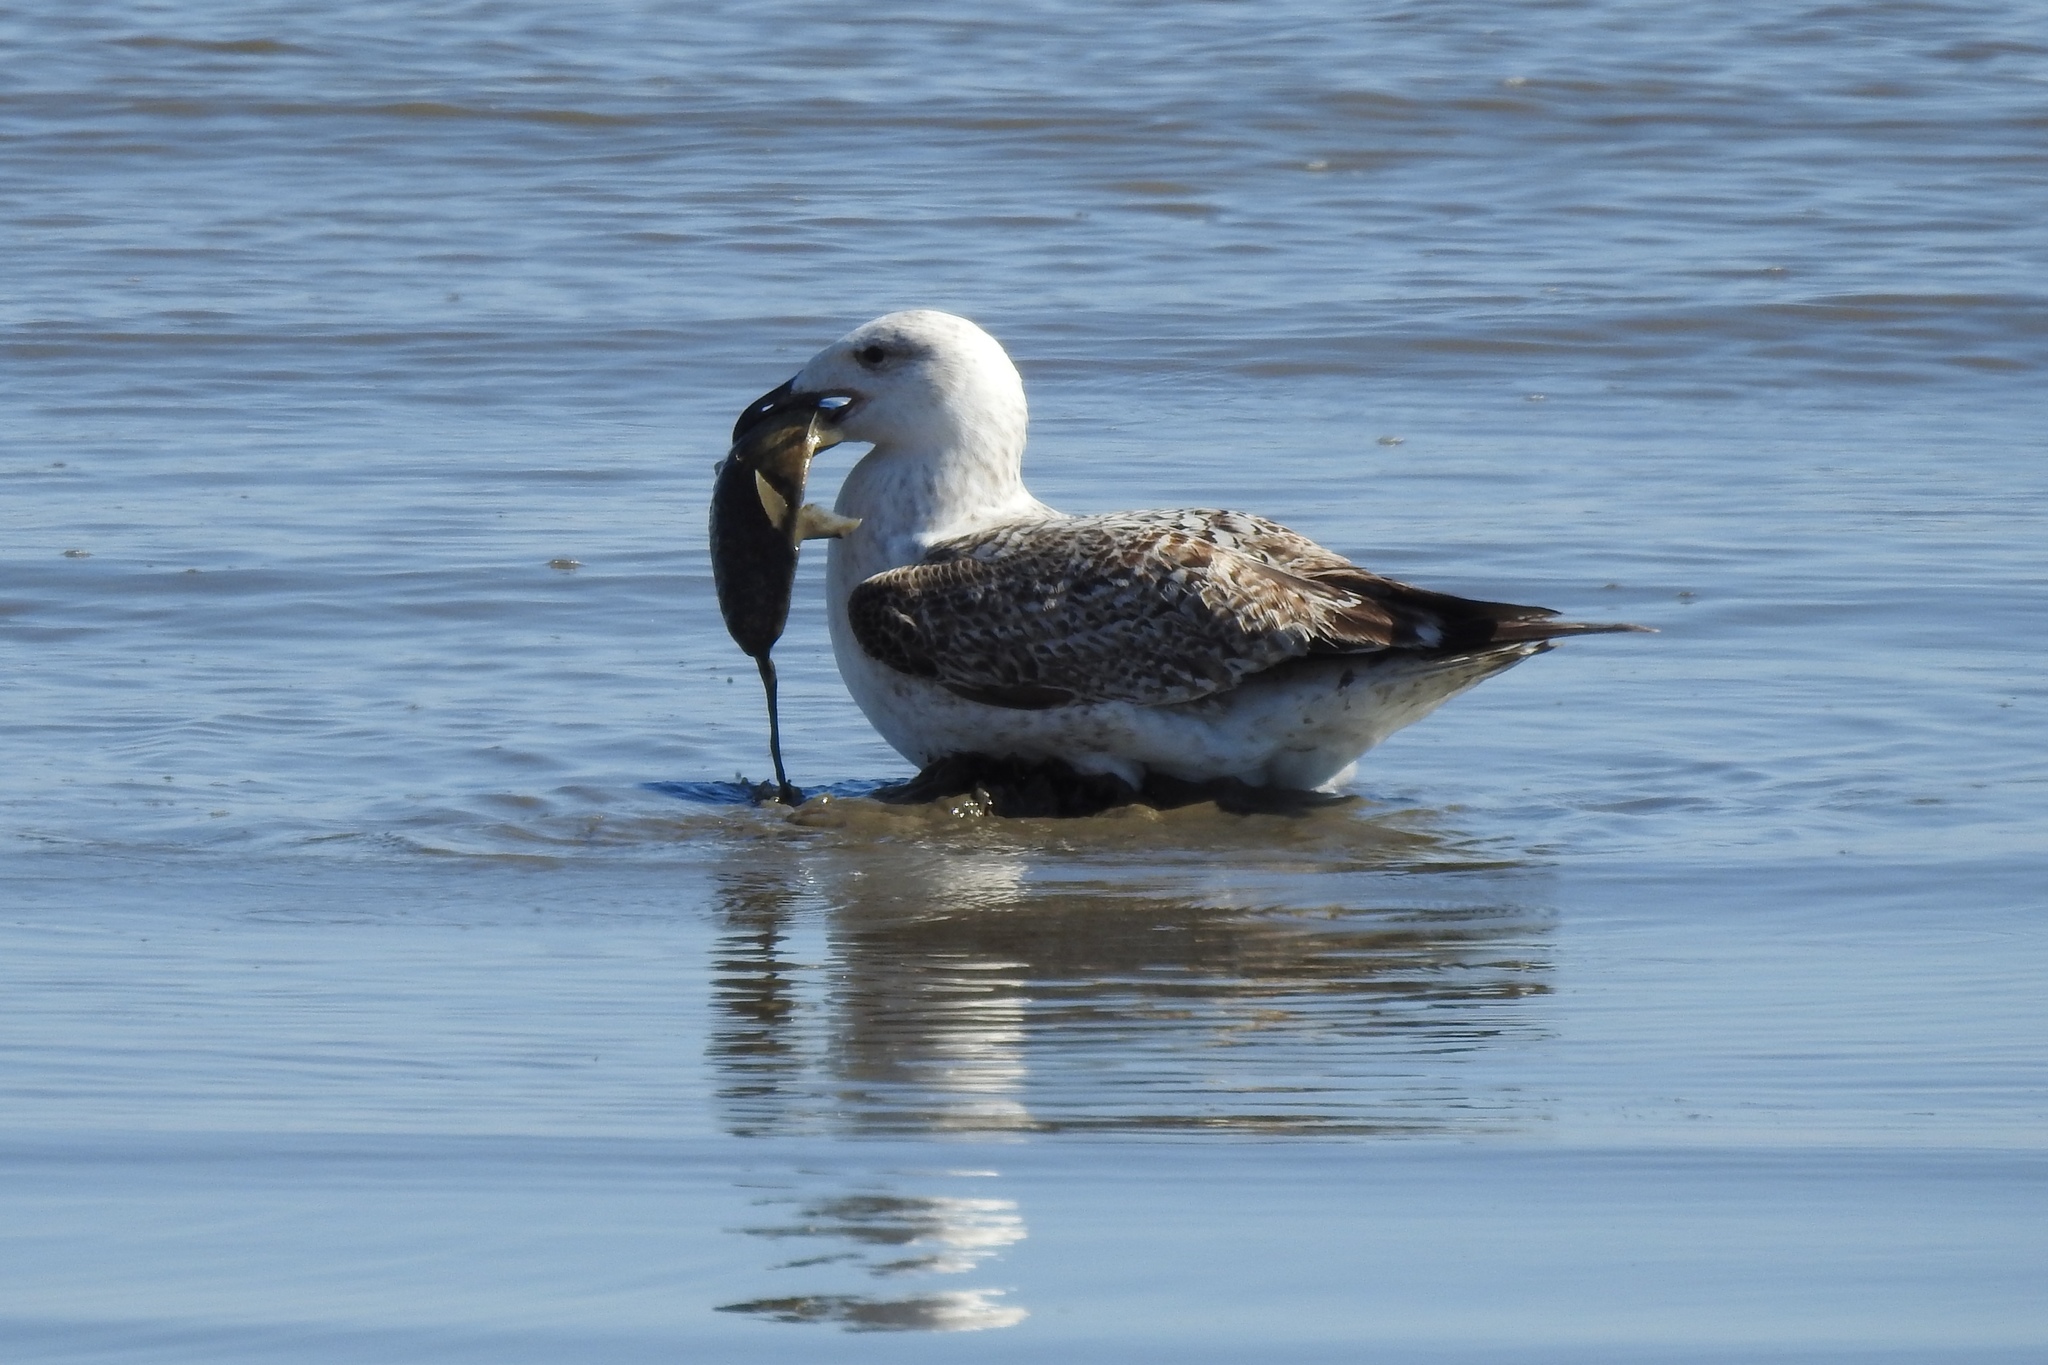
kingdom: Animalia
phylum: Chordata
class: Aves
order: Charadriiformes
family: Laridae
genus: Larus
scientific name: Larus marinus
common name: Great black-backed gull
